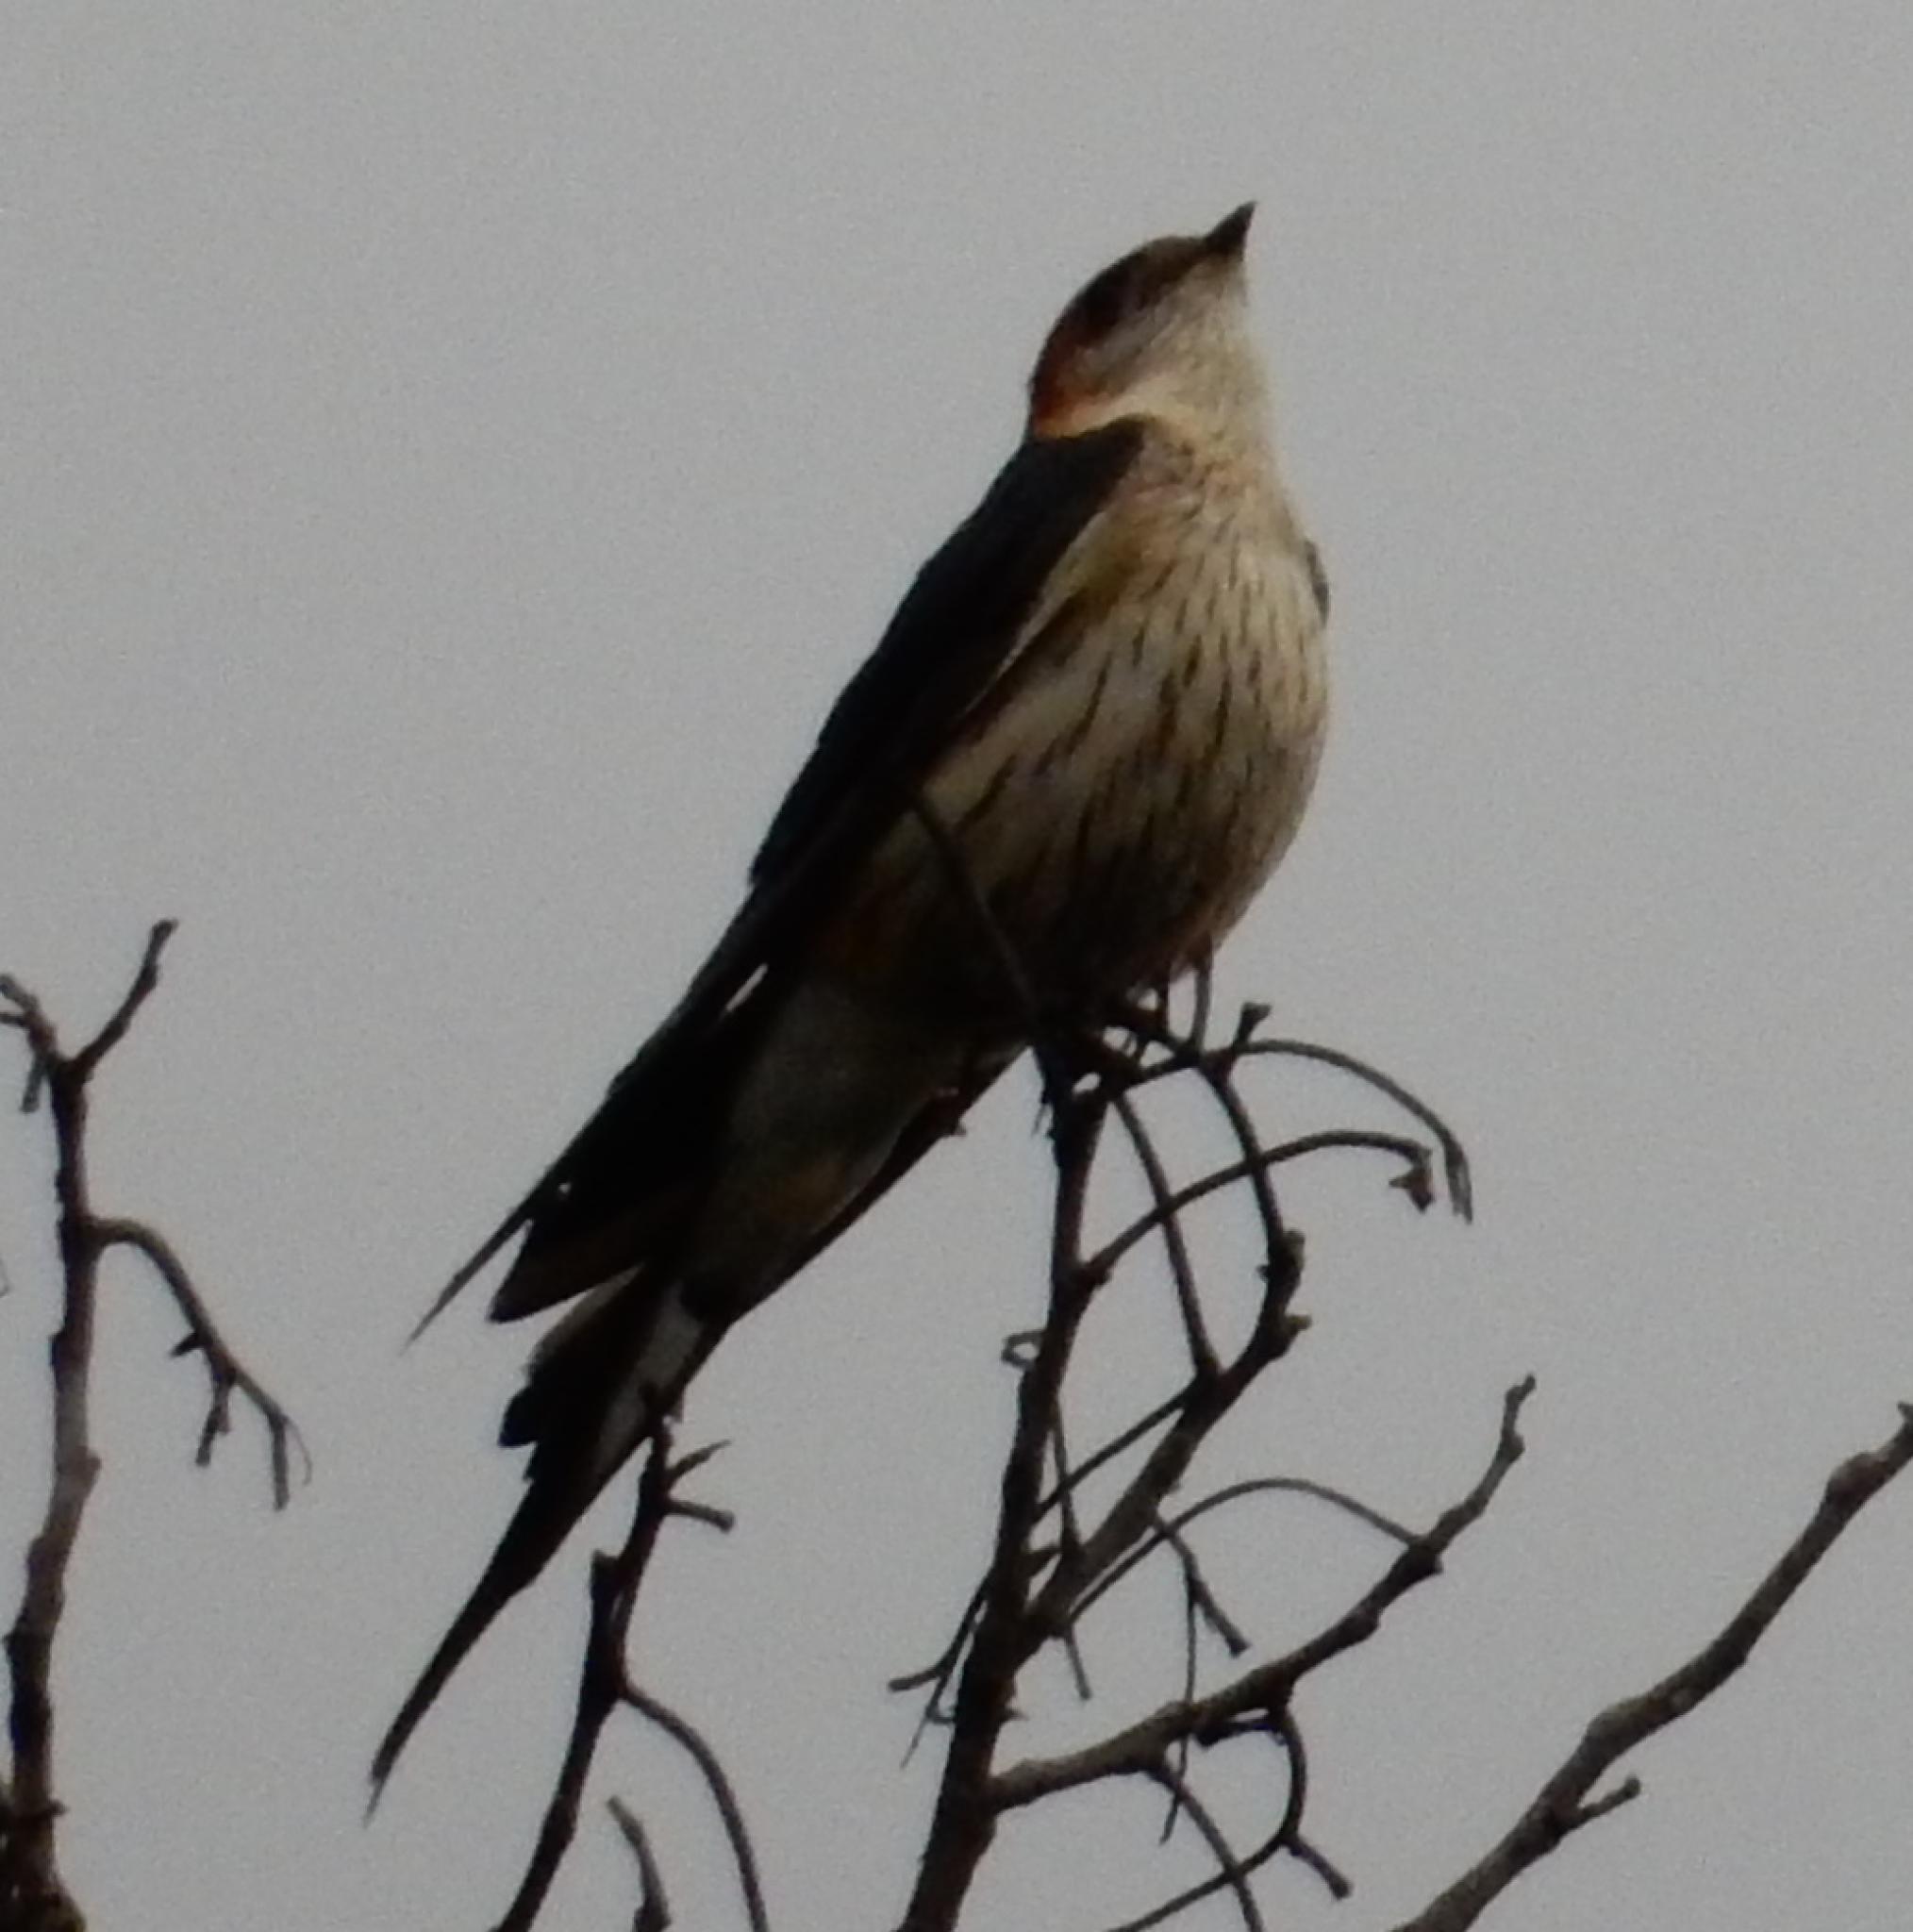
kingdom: Animalia
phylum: Chordata
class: Aves
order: Passeriformes
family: Hirundinidae
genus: Cecropis
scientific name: Cecropis cucullata
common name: Greater striped-swallow
